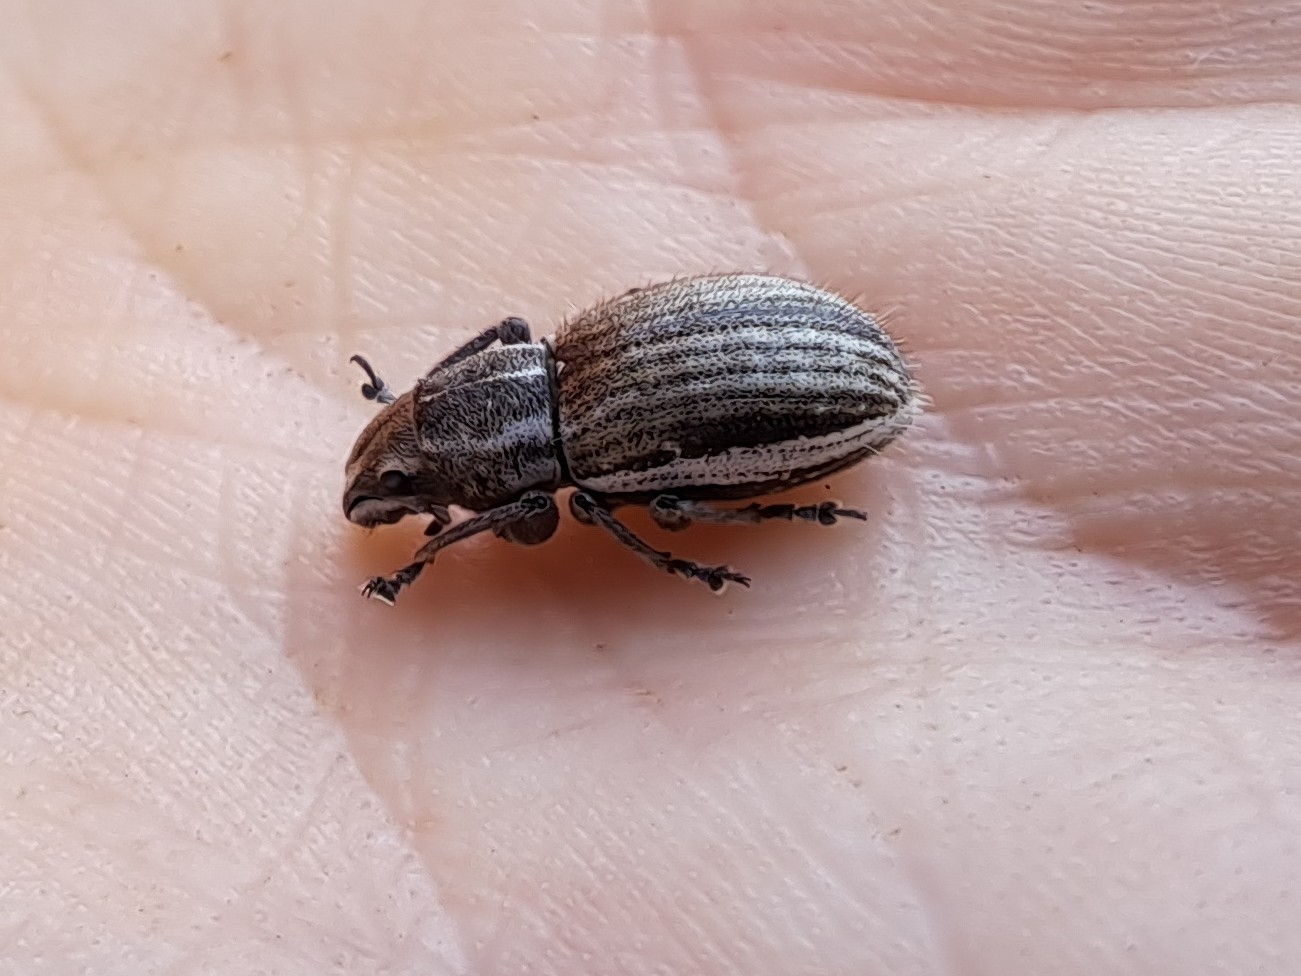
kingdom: Animalia
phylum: Arthropoda
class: Insecta
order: Coleoptera
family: Curculionidae
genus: Naupactus
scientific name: Naupactus leucoloma
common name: Whitefringed beetle
